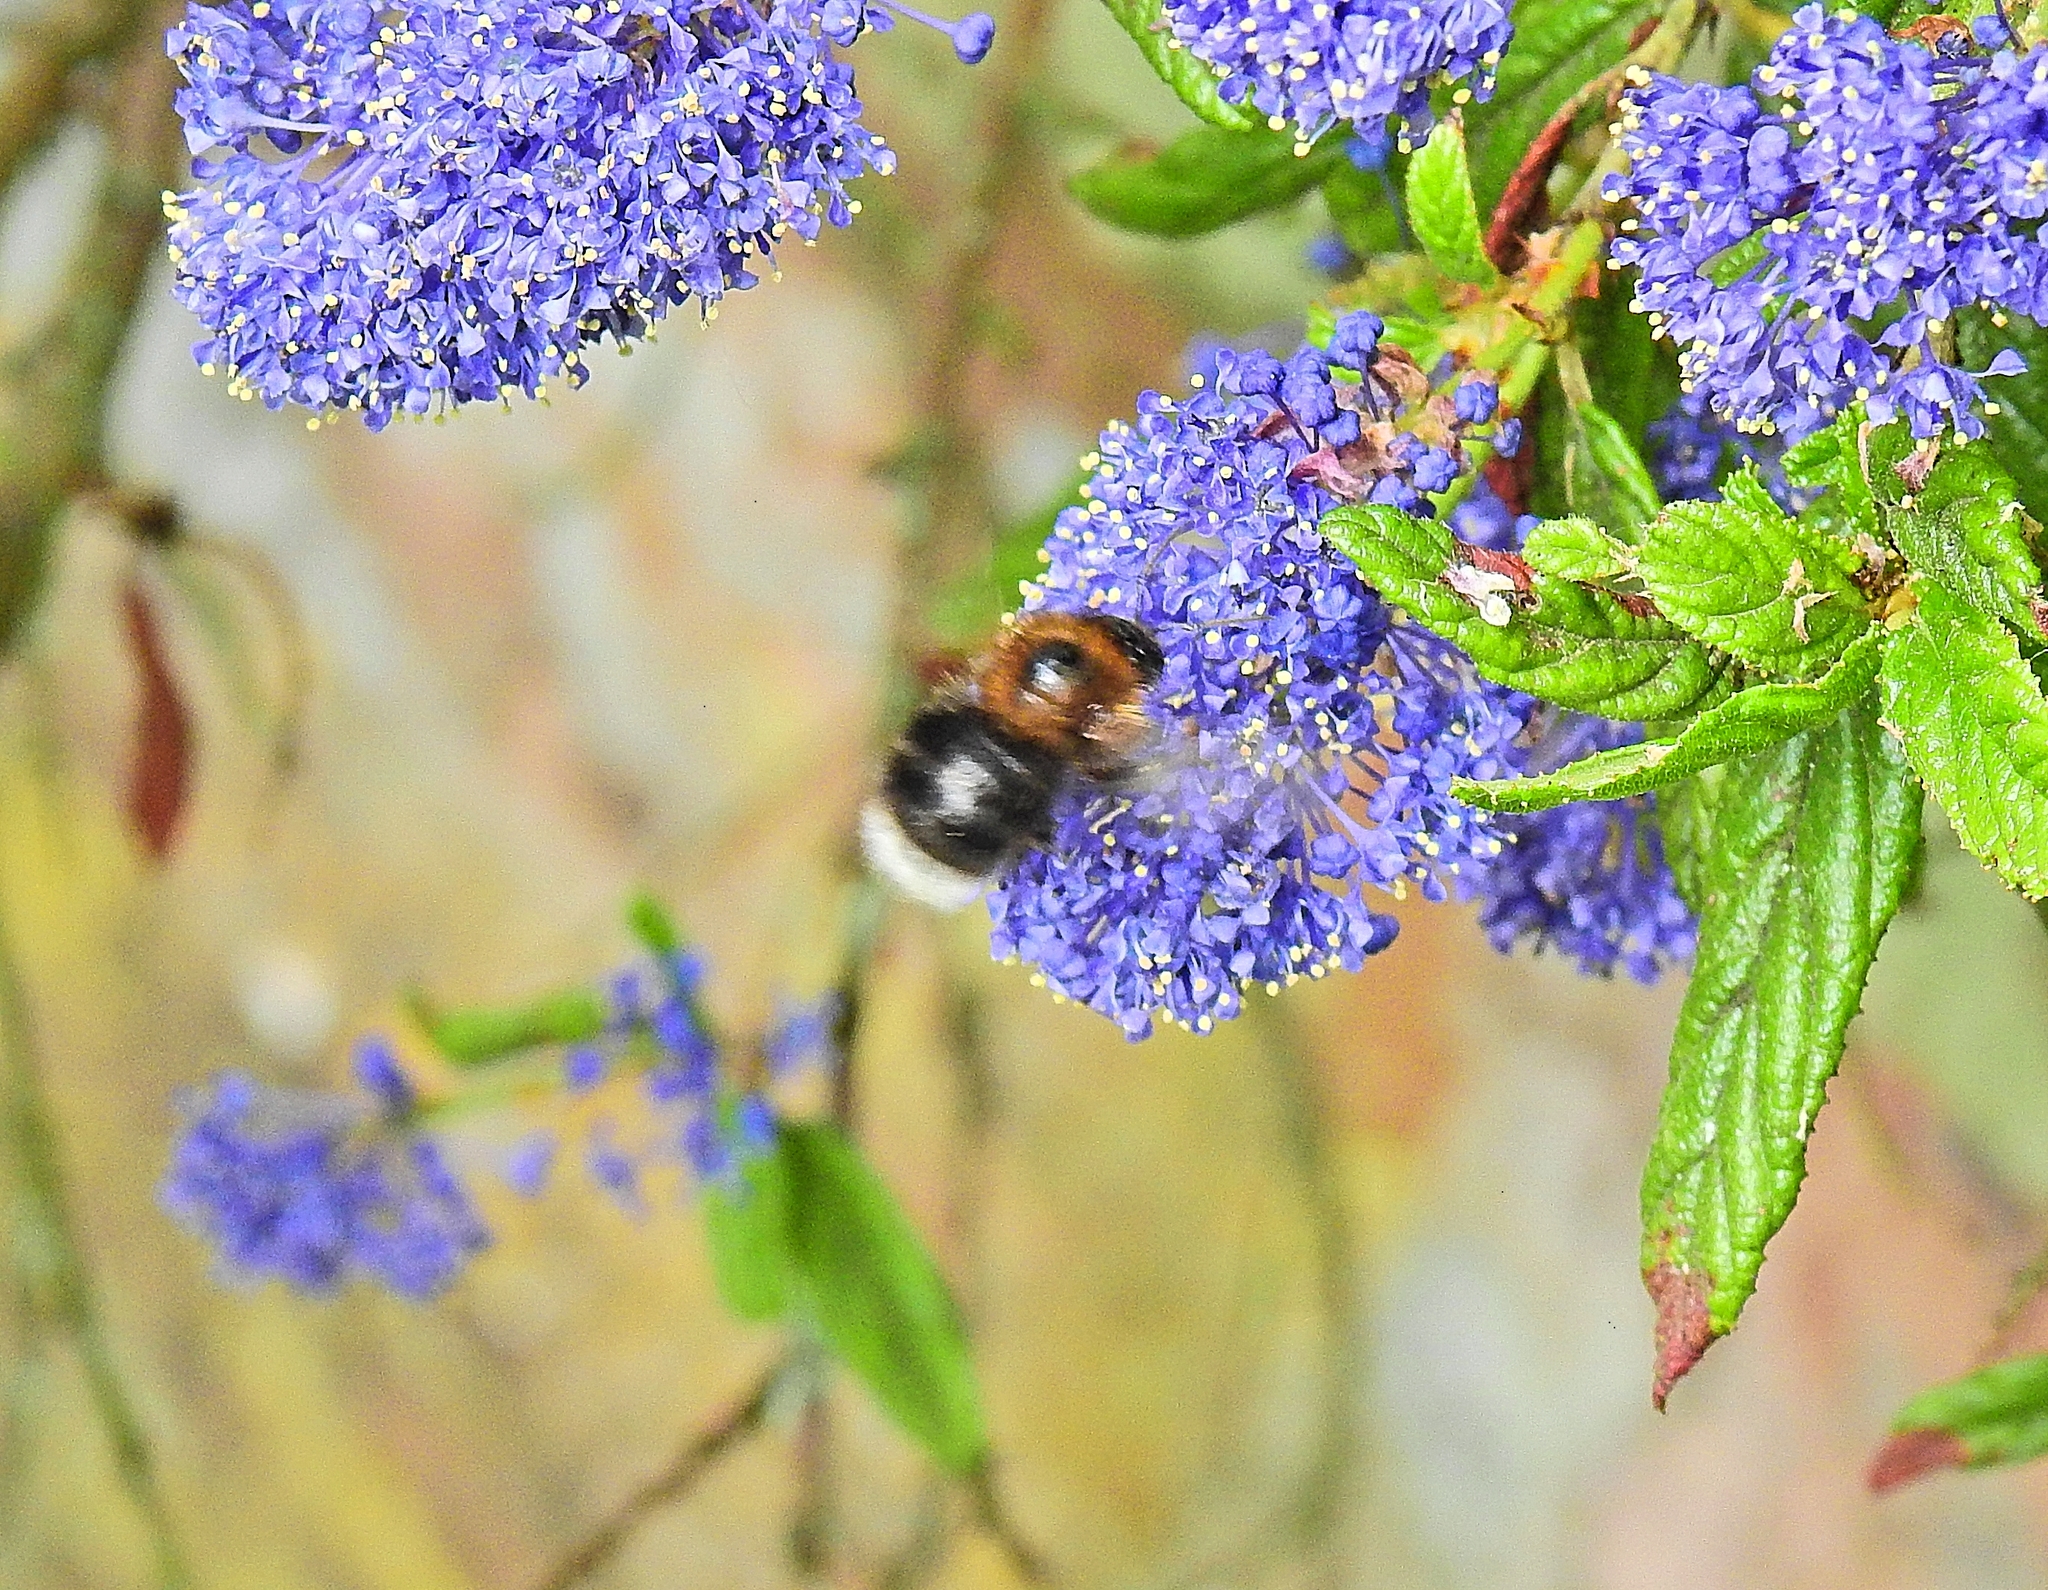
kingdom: Animalia
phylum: Arthropoda
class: Insecta
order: Hymenoptera
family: Apidae
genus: Bombus
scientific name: Bombus hypnorum
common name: New garden bumblebee
